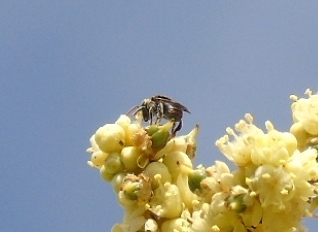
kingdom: Animalia
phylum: Arthropoda
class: Insecta
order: Hymenoptera
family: Apidae
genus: Apidae
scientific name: Apidae
